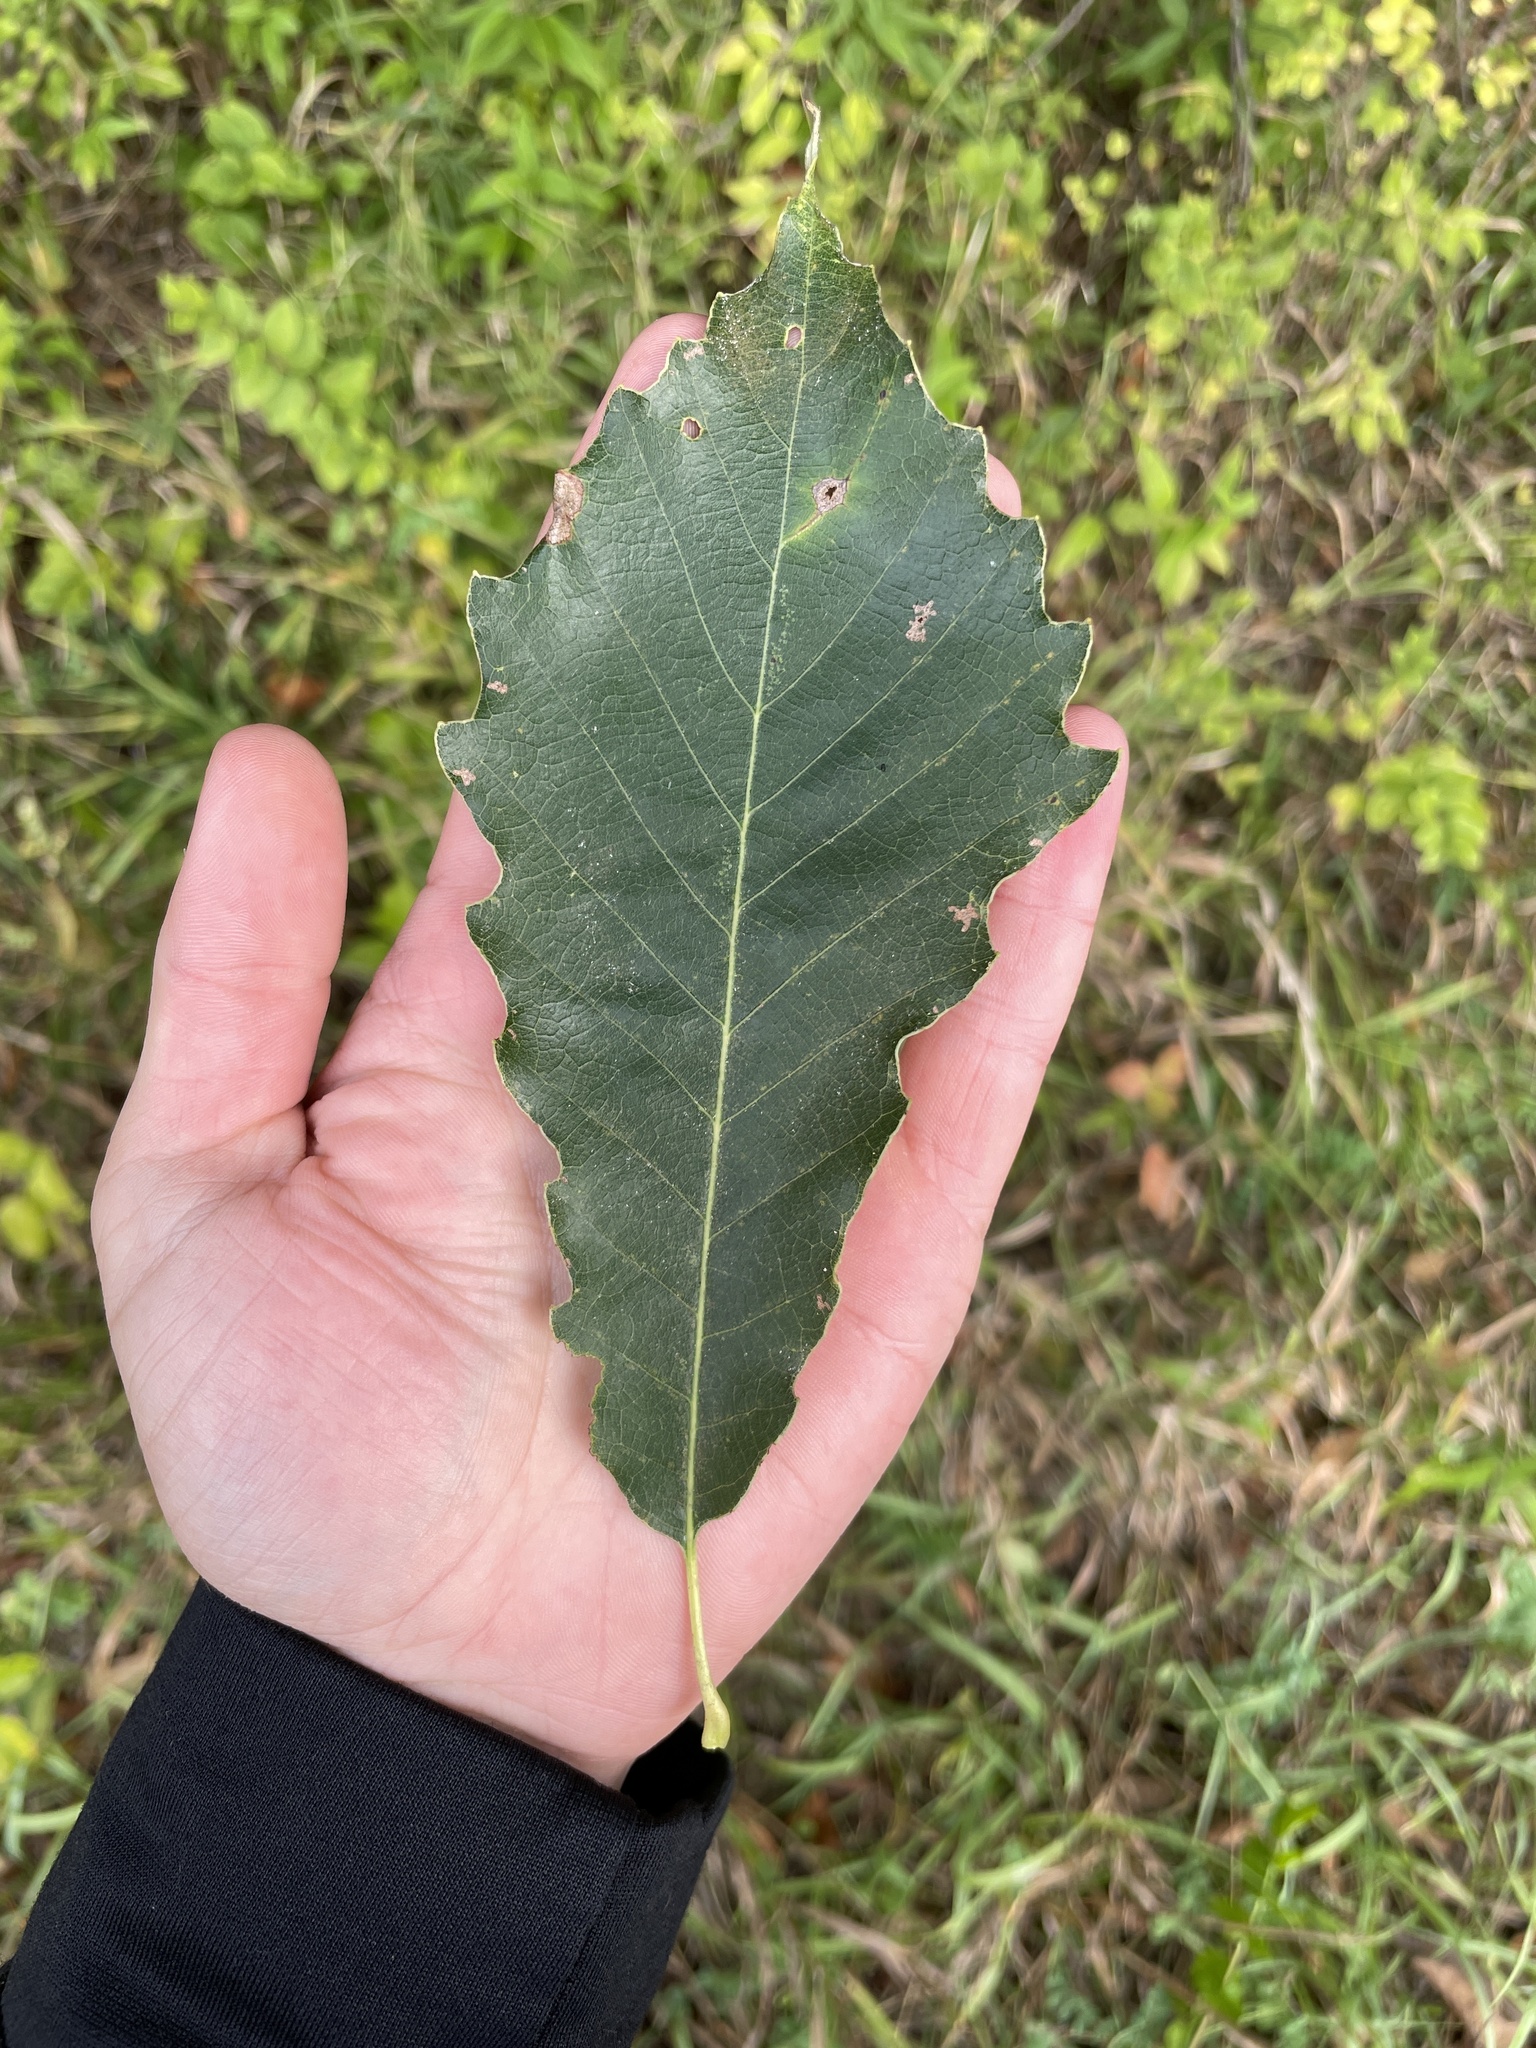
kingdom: Plantae
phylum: Tracheophyta
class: Magnoliopsida
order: Fagales
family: Fagaceae
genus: Quercus
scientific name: Quercus muehlenbergii
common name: Chinkapin oak
